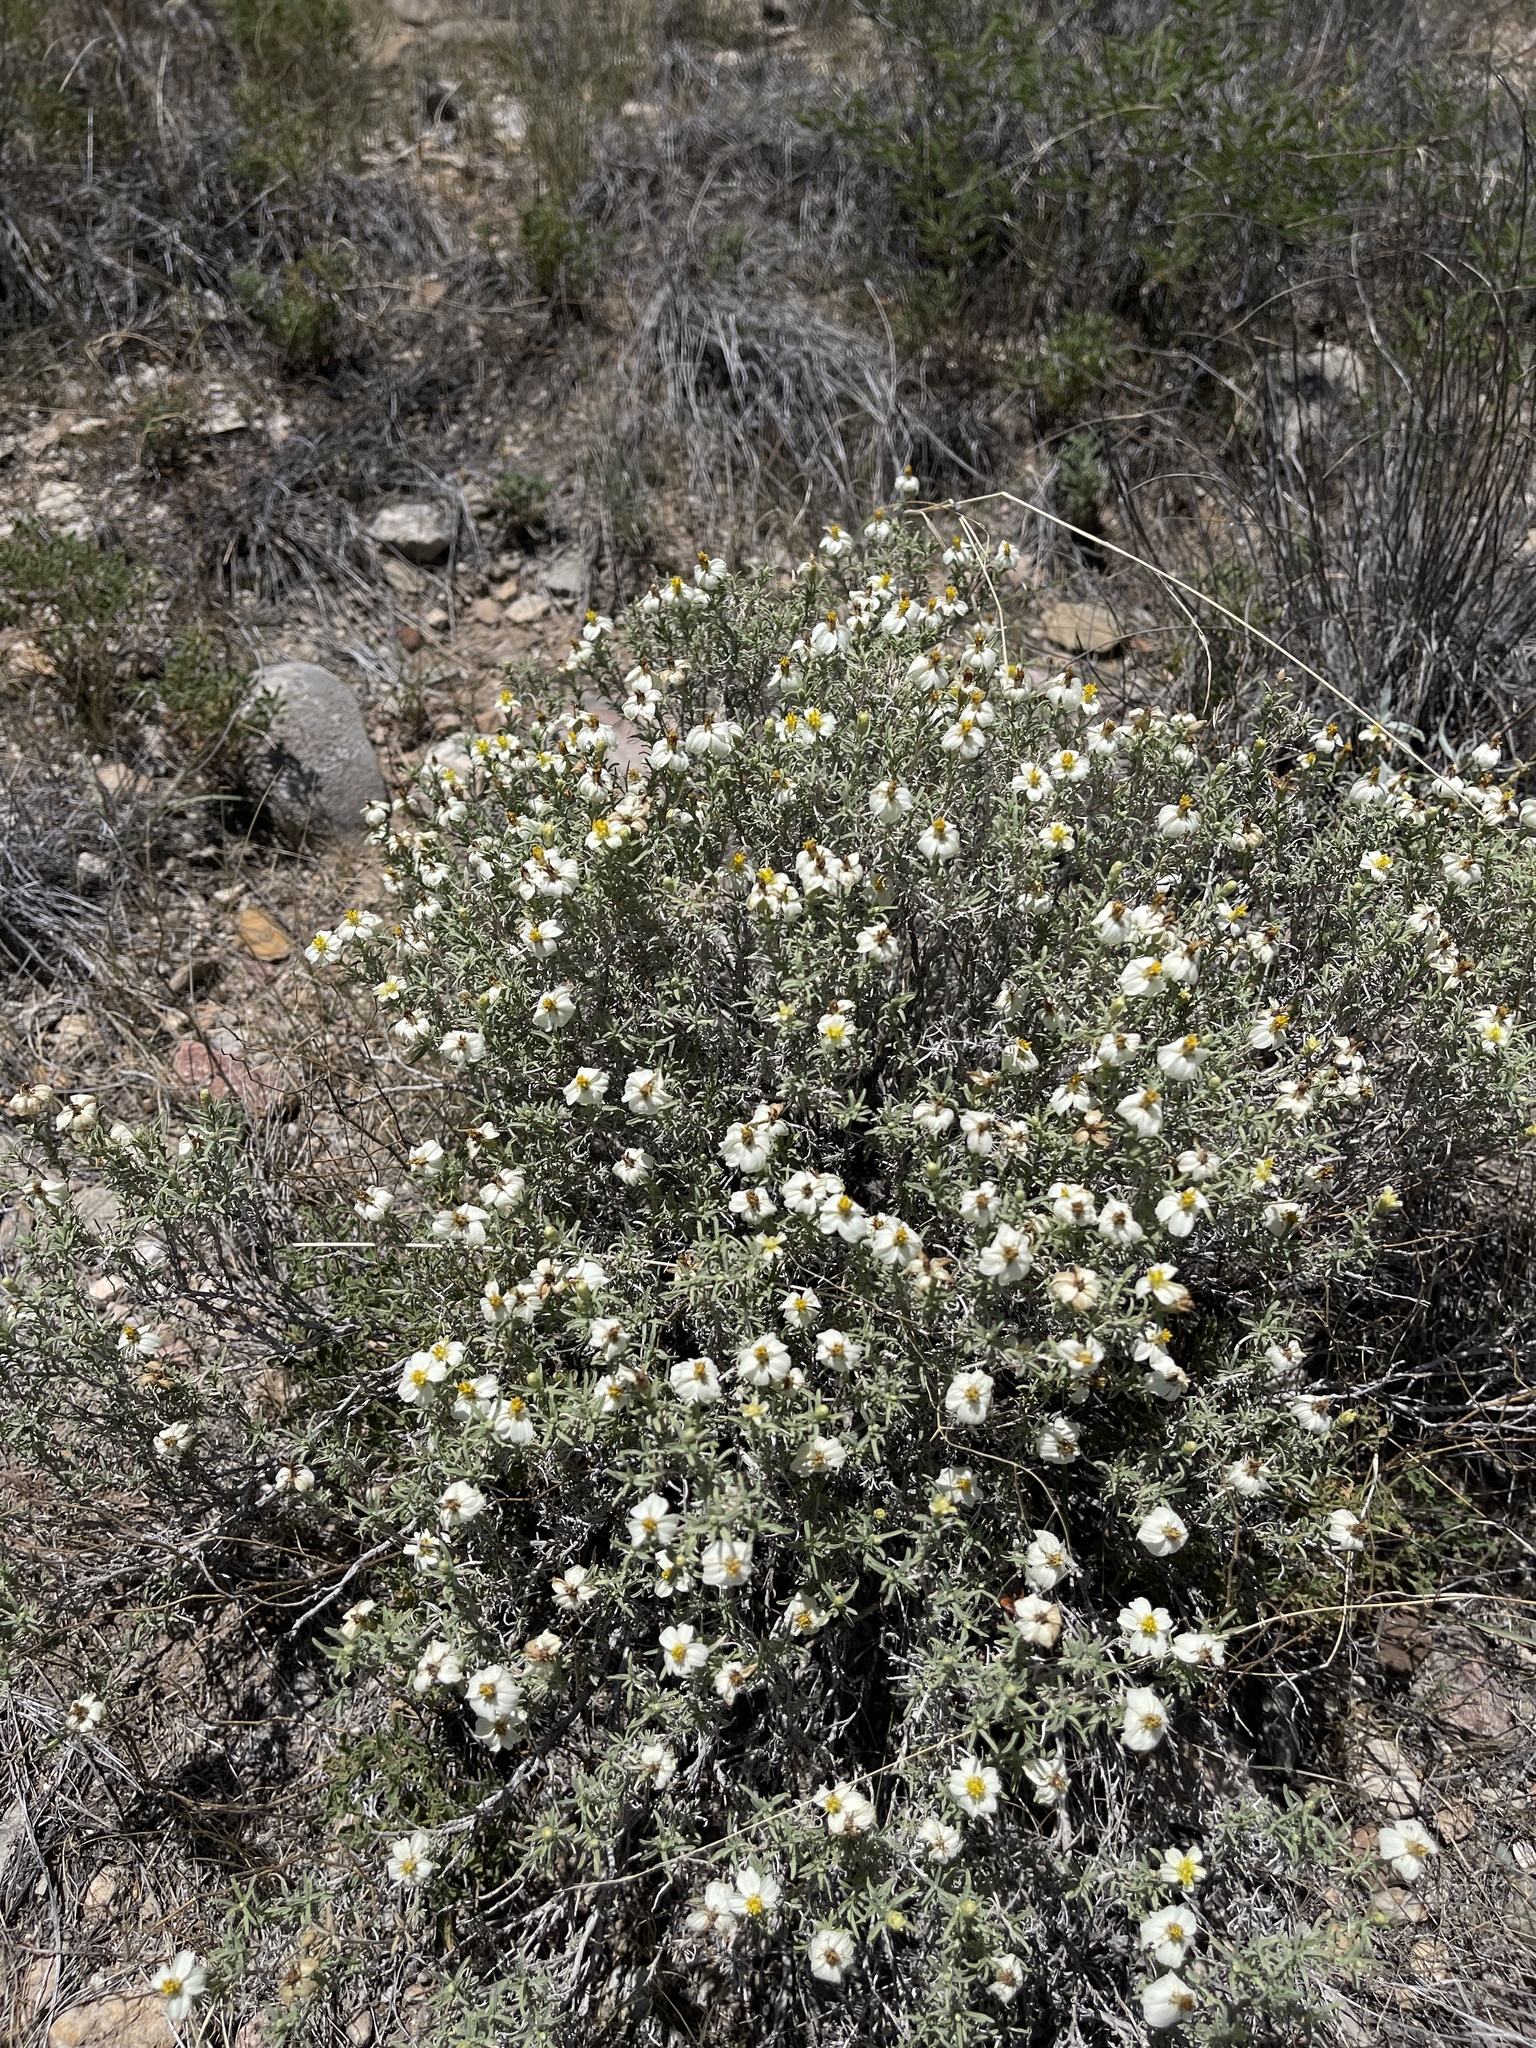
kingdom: Plantae
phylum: Tracheophyta
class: Magnoliopsida
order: Asterales
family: Asteraceae
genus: Zinnia
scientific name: Zinnia acerosa
